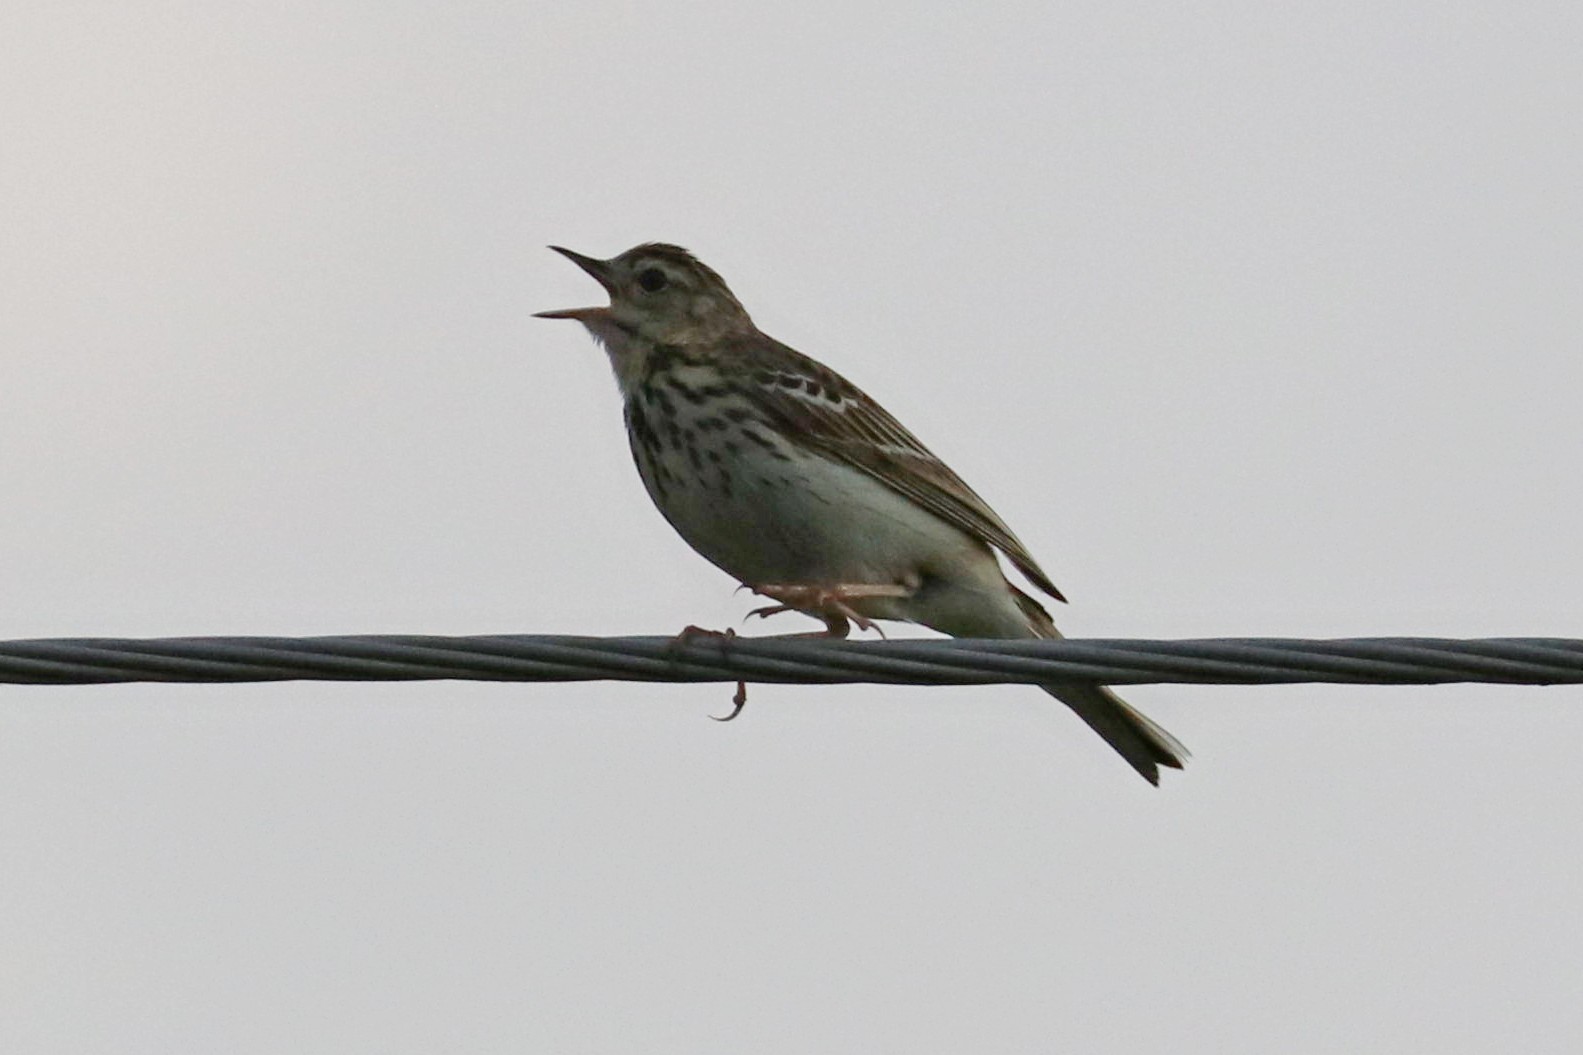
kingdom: Animalia
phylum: Chordata
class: Aves
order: Passeriformes
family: Motacillidae
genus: Anthus
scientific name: Anthus trivialis
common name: Tree pipit
